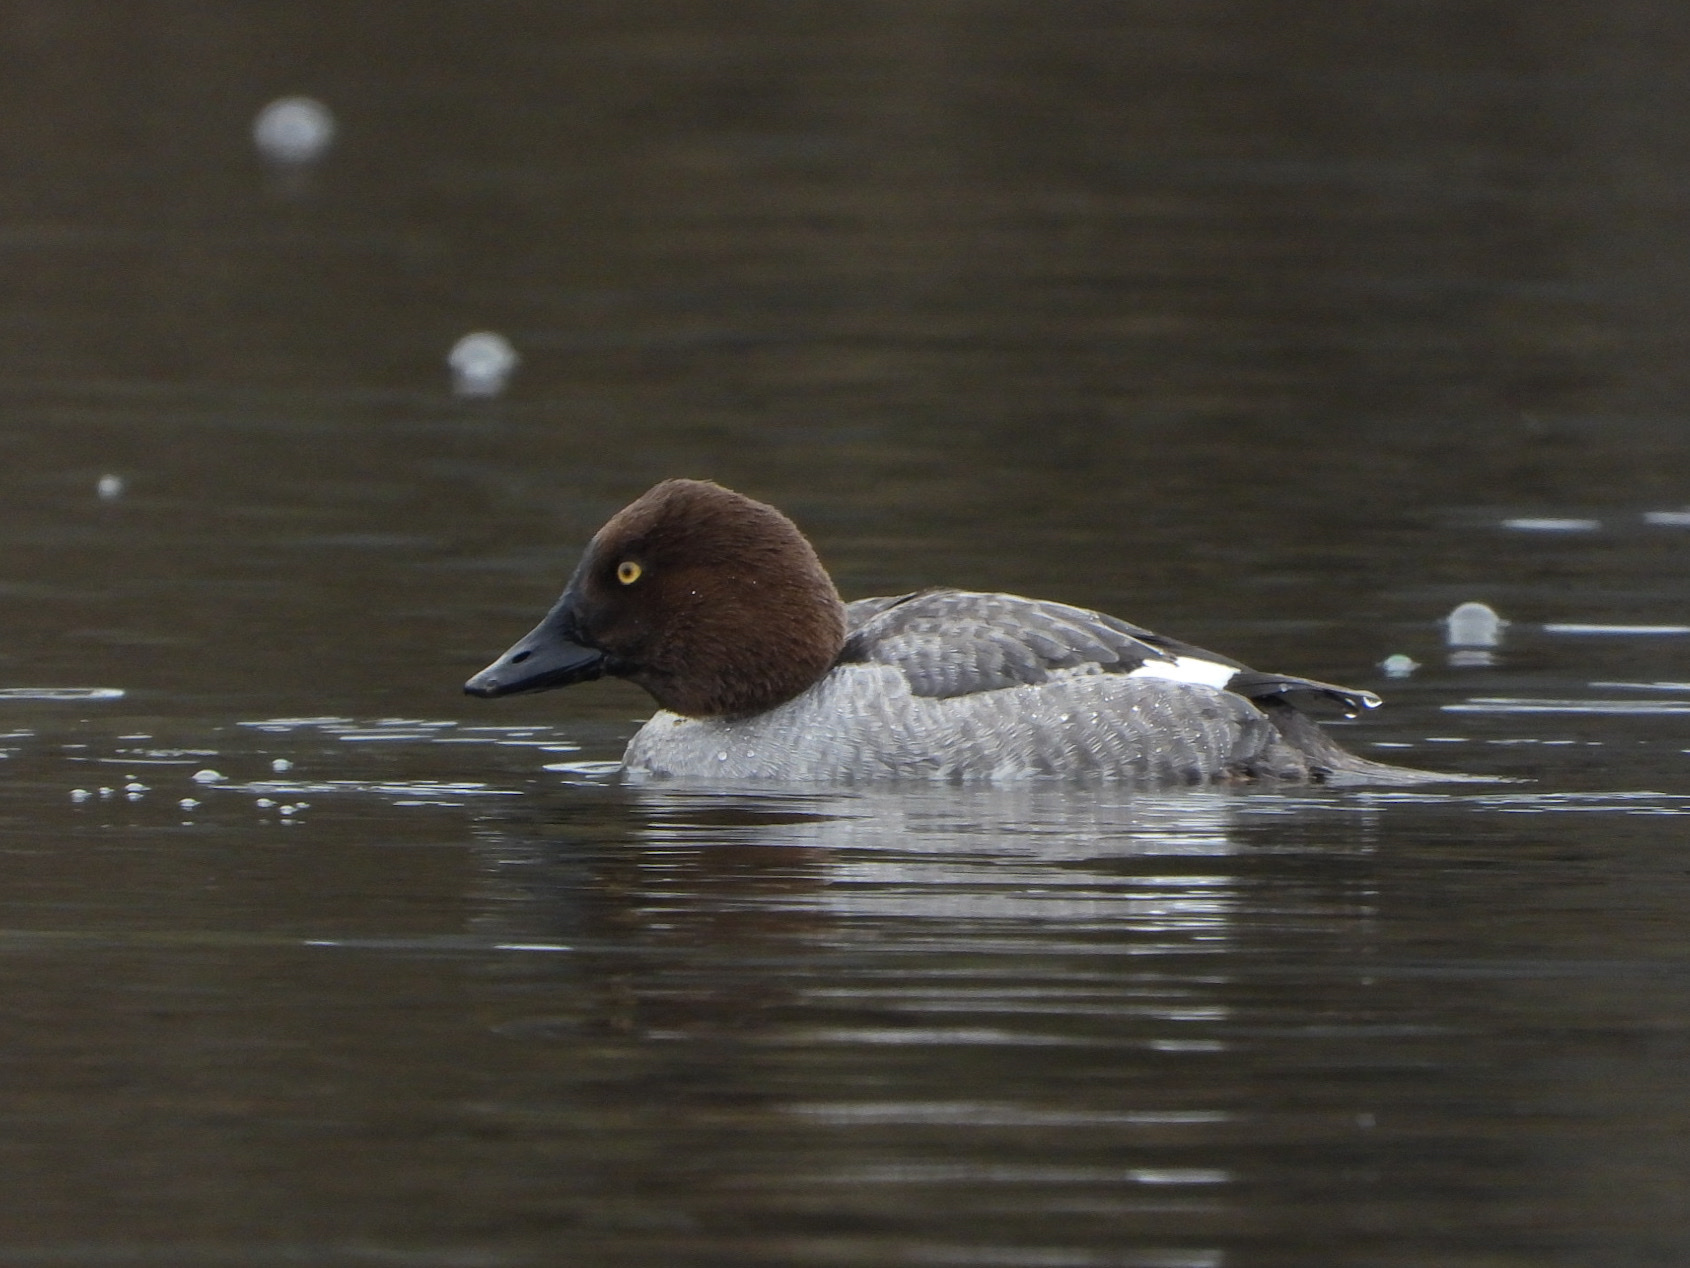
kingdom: Animalia
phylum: Chordata
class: Aves
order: Anseriformes
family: Anatidae
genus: Bucephala
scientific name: Bucephala clangula
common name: Common goldeneye
